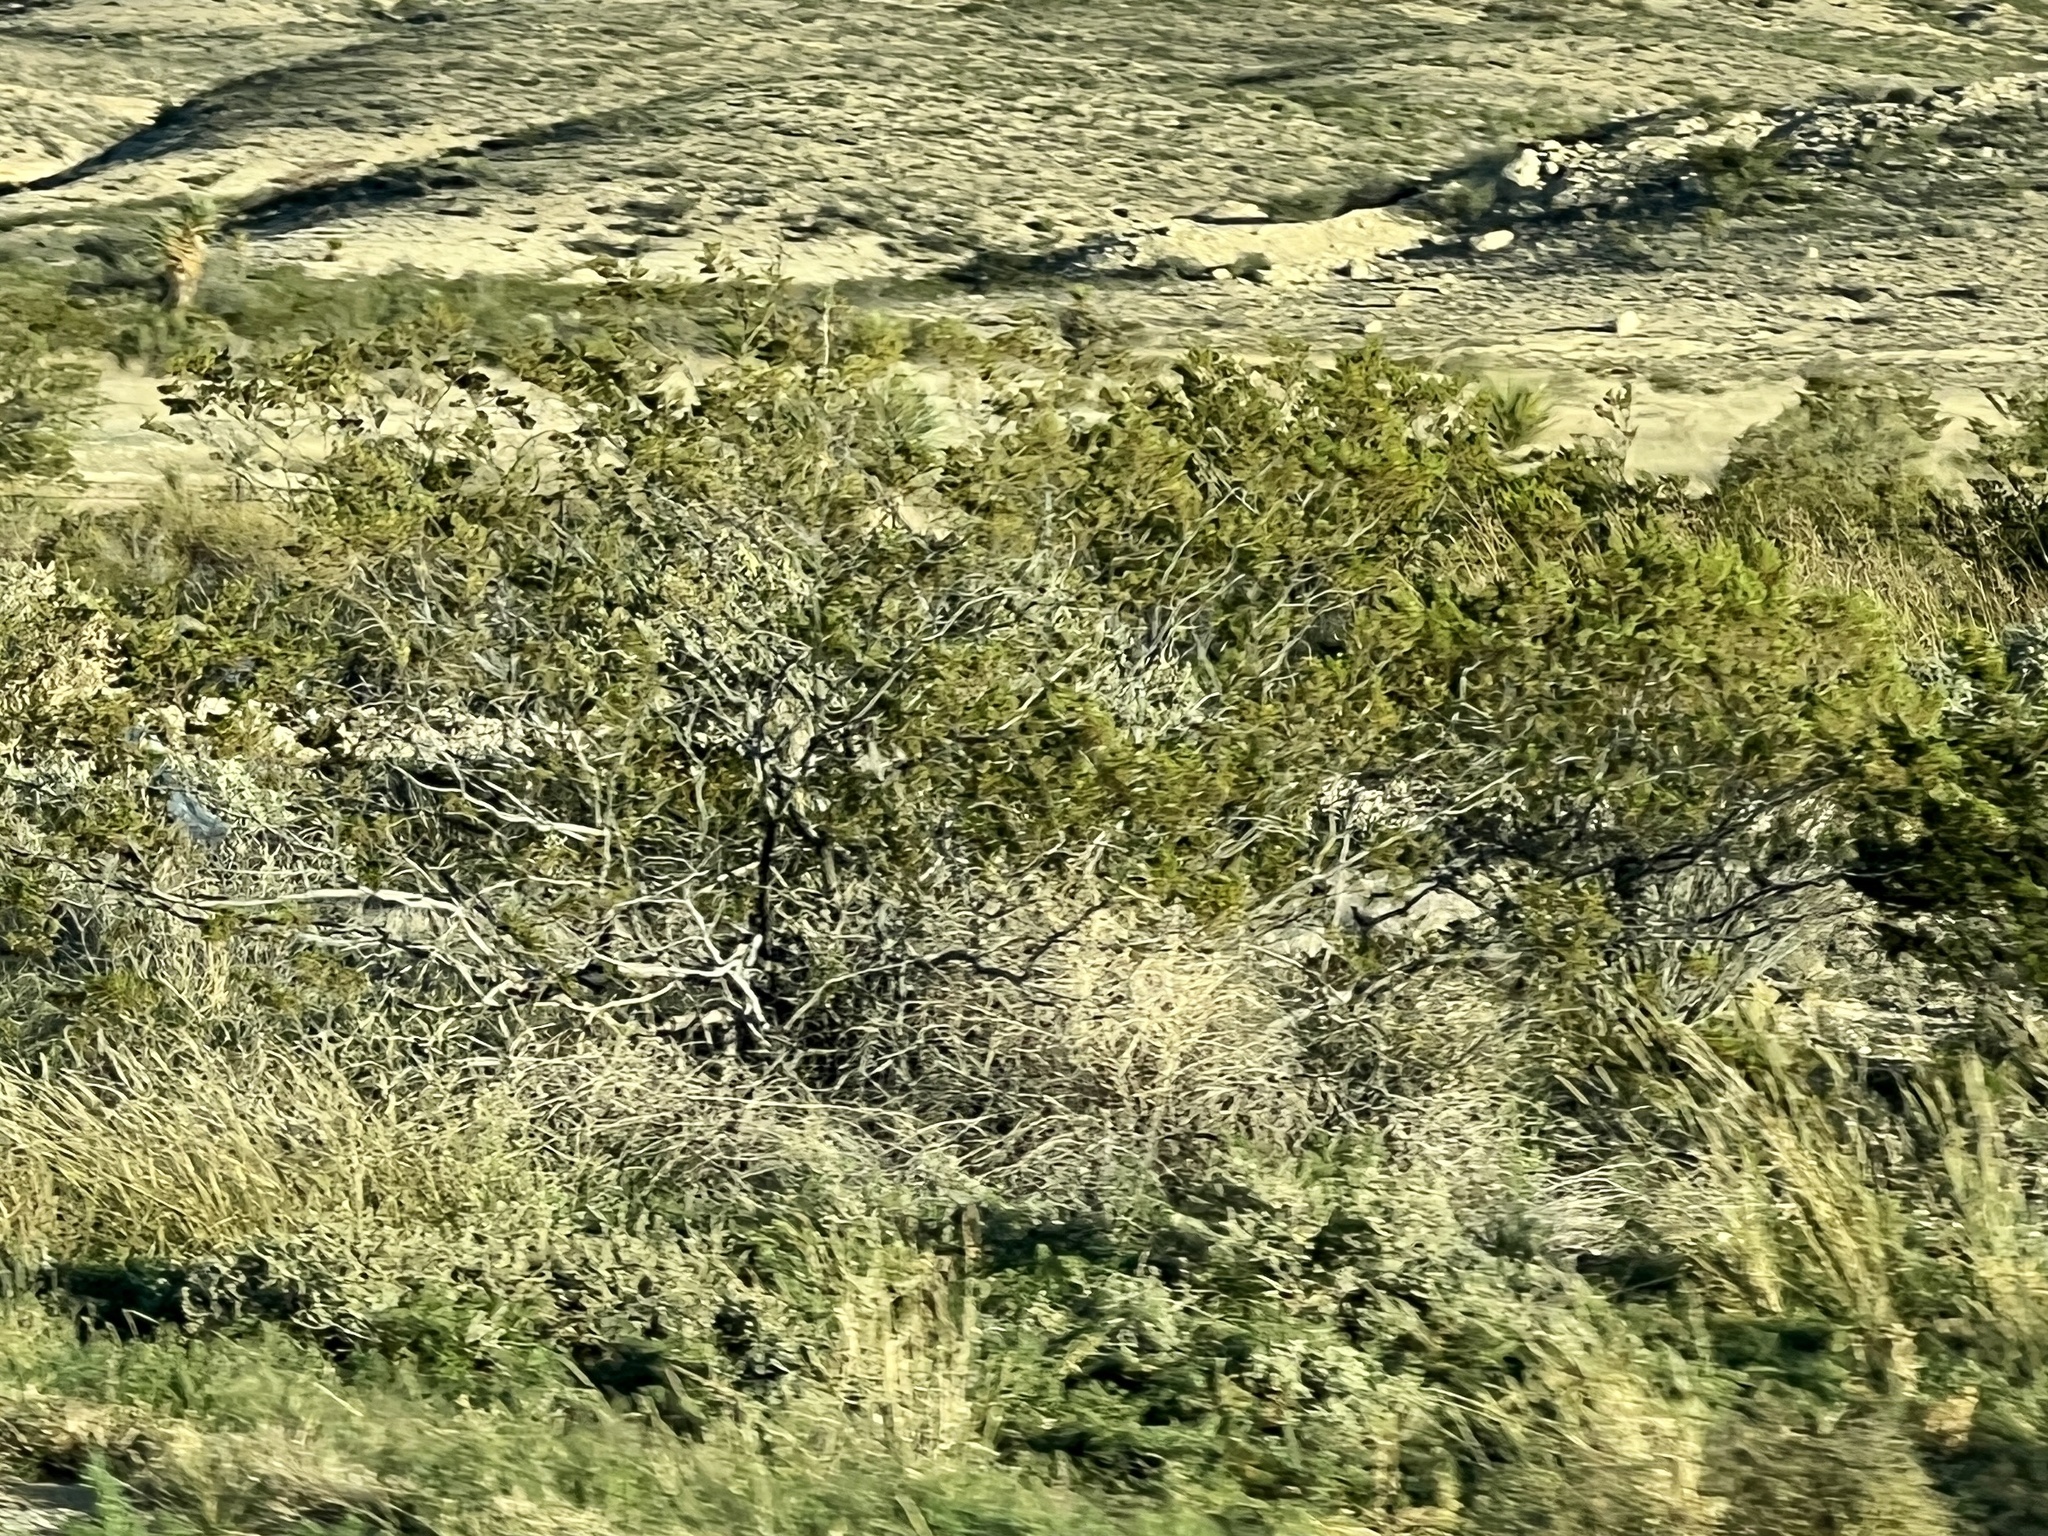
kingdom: Plantae
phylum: Tracheophyta
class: Magnoliopsida
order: Zygophyllales
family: Zygophyllaceae
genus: Larrea
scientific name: Larrea tridentata
